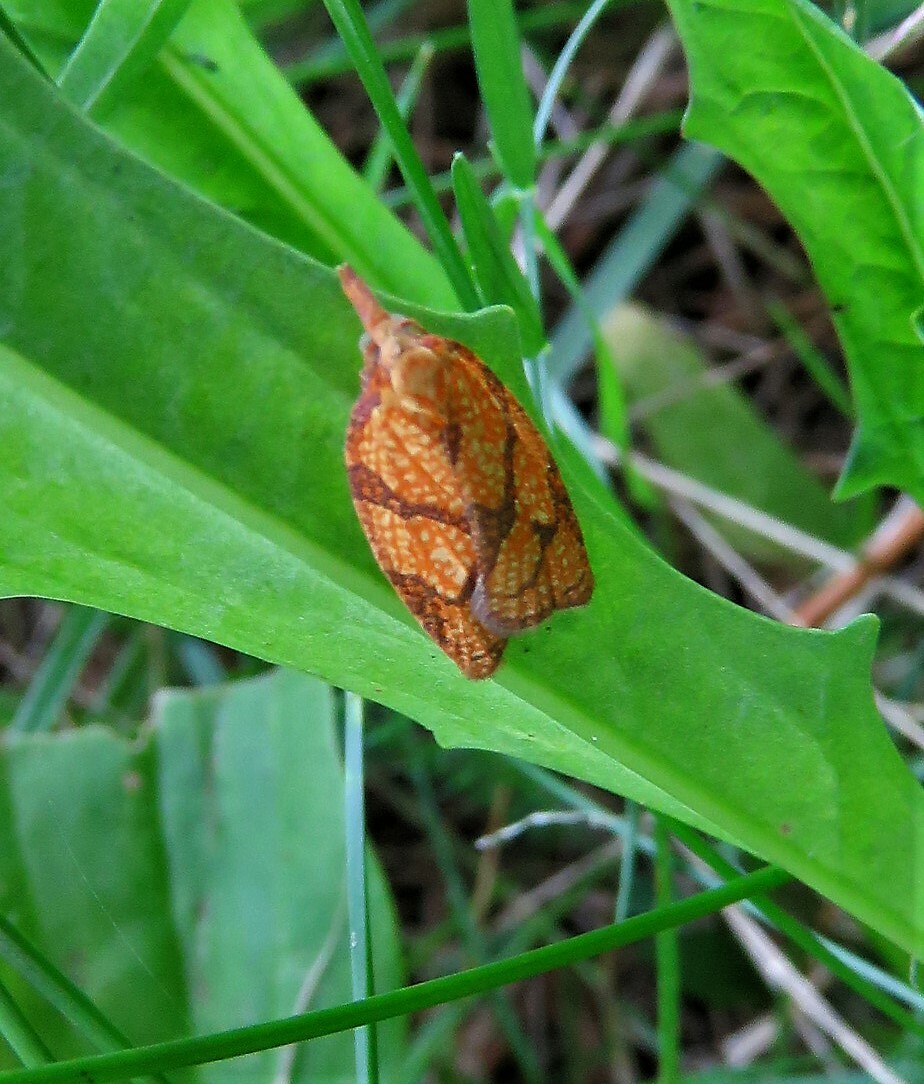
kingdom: Animalia
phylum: Arthropoda
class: Insecta
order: Lepidoptera
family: Tortricidae
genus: Cenopis
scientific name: Cenopis reticulatana
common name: Reticulated fruitworm moth
